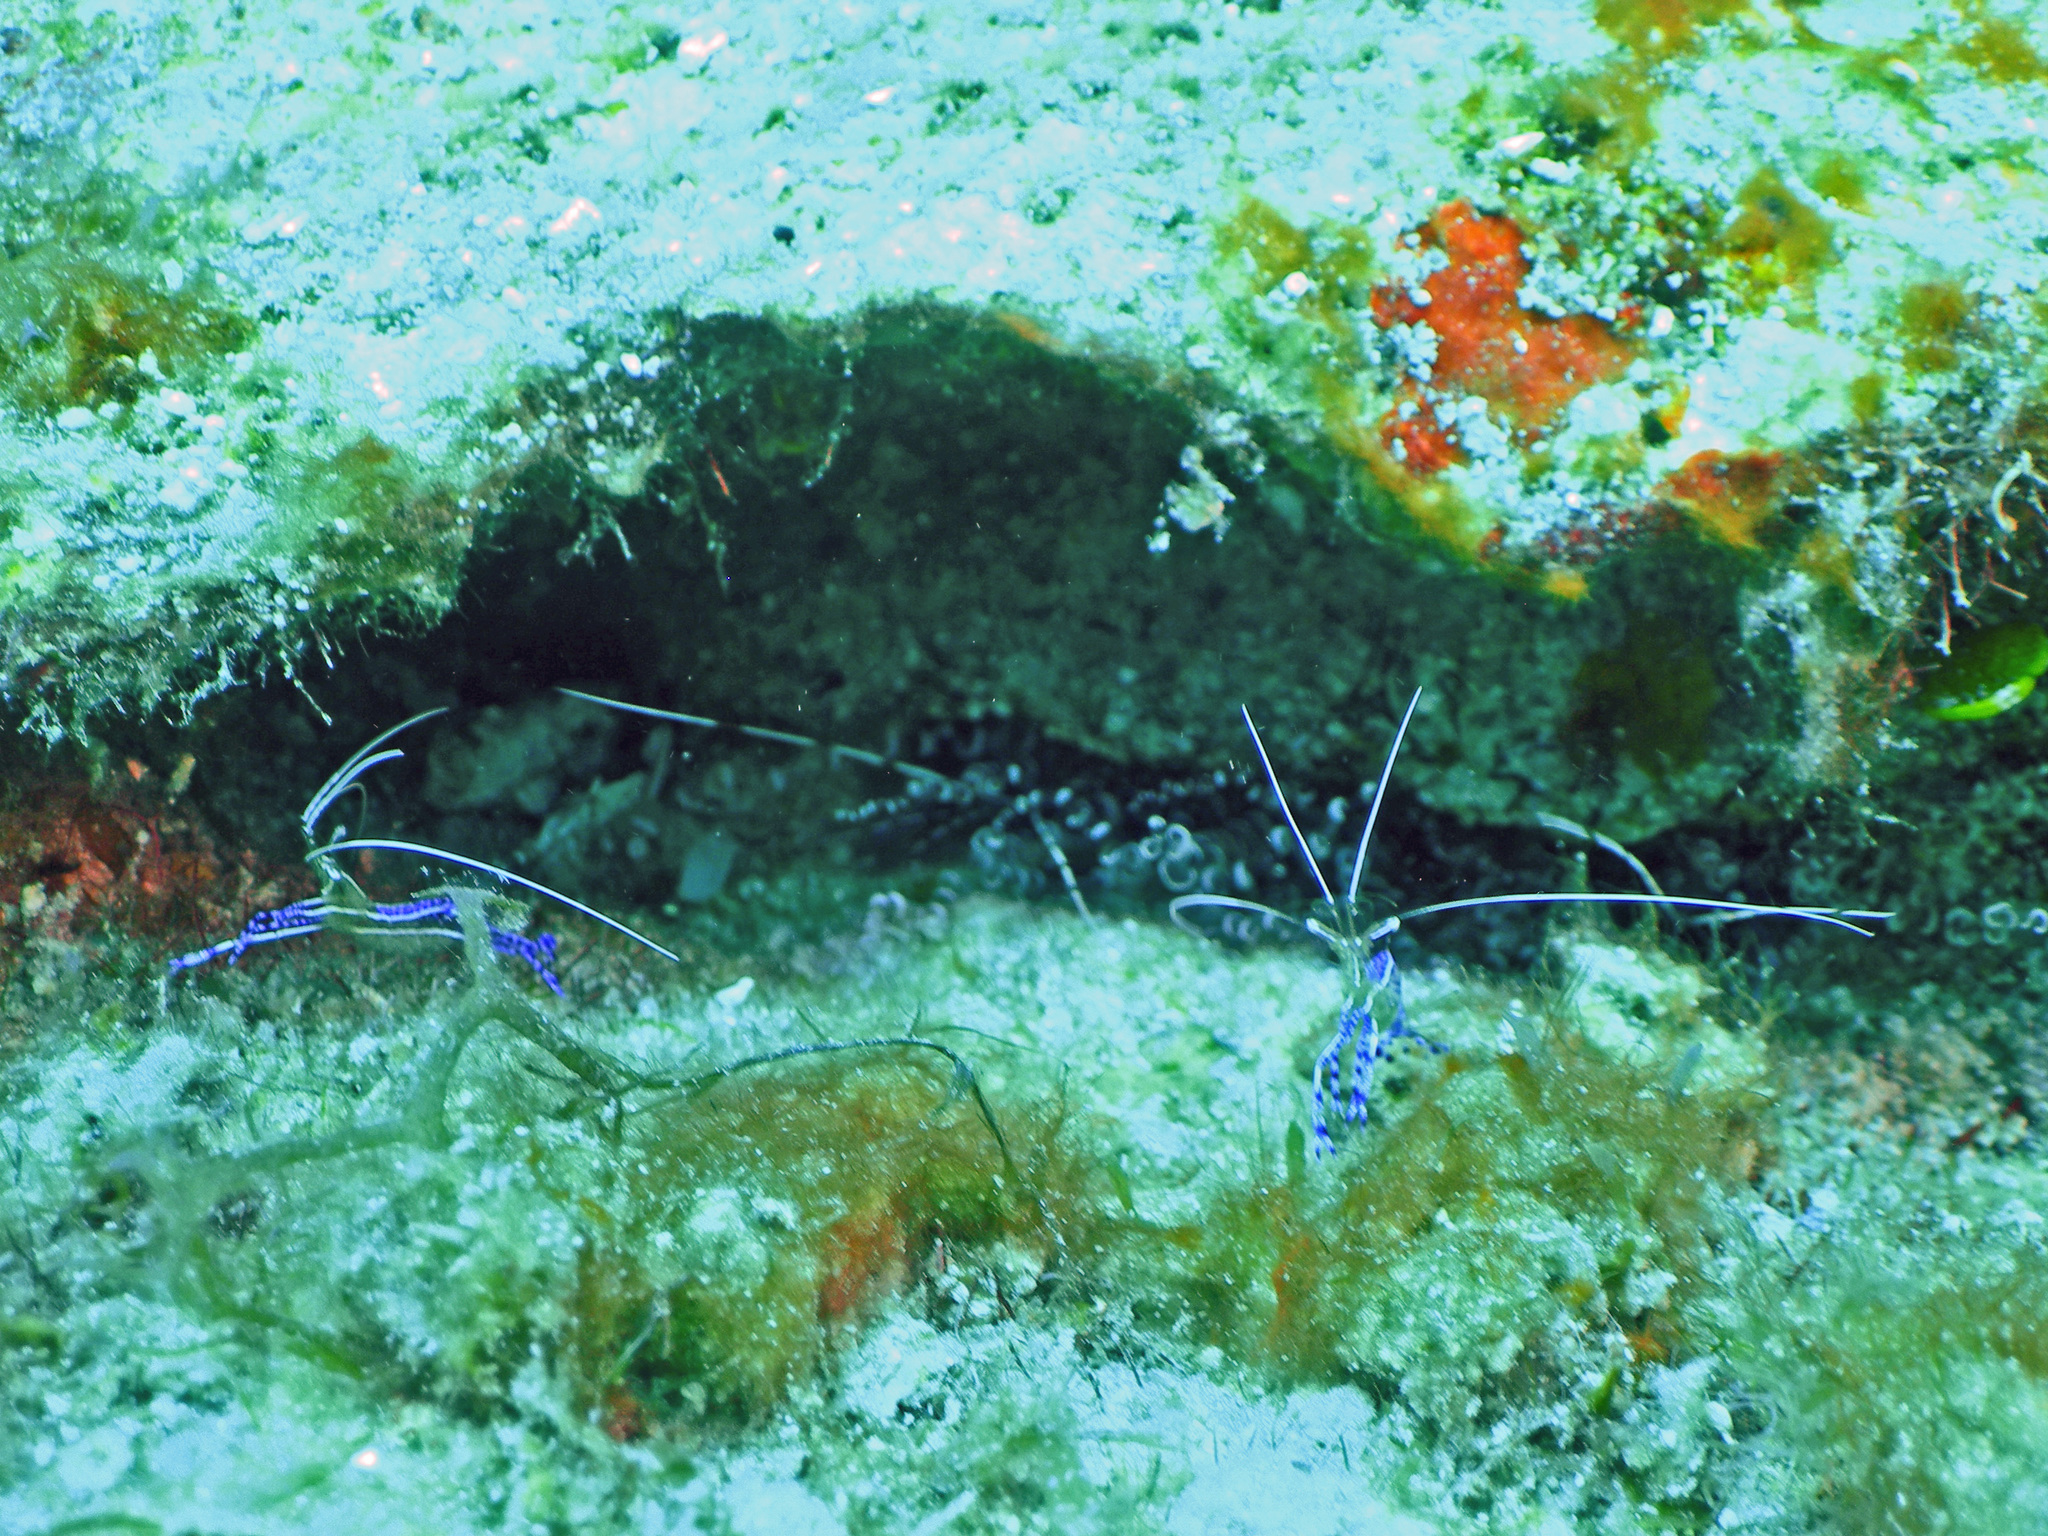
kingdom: Animalia
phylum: Arthropoda
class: Malacostraca
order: Decapoda
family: Palaemonidae
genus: Ancylomenes
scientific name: Ancylomenes pedersoni
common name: Pederson's cleaning shrimp
